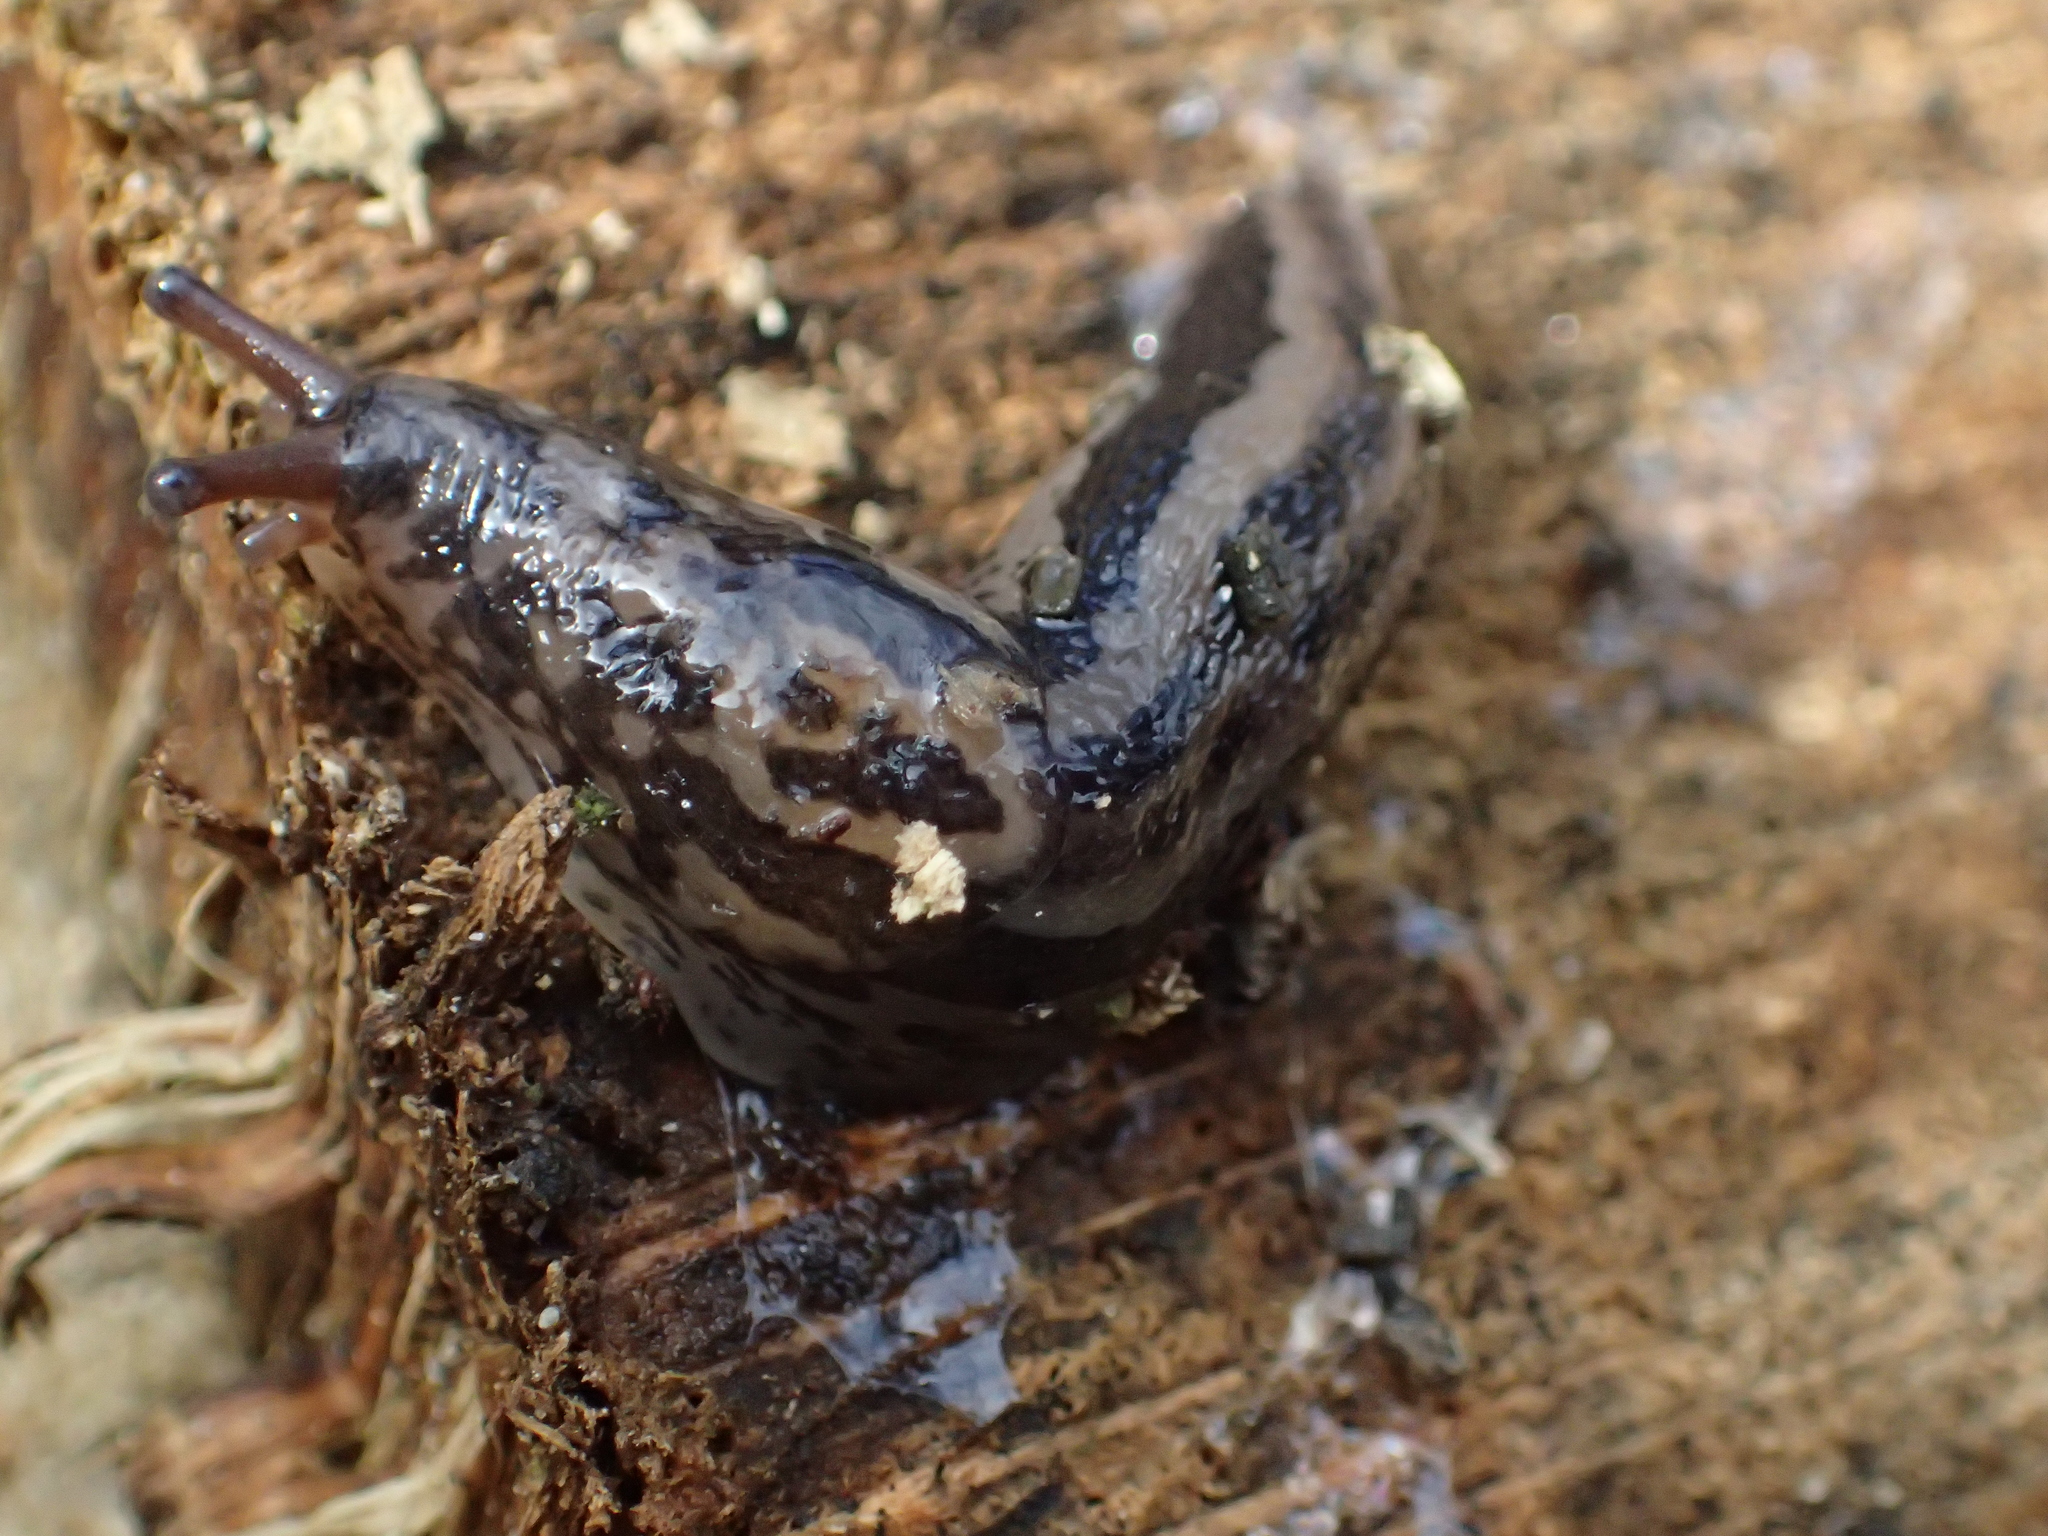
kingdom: Animalia
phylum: Mollusca
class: Gastropoda
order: Stylommatophora
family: Limacidae
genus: Limax
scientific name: Limax maximus
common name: Great grey slug
